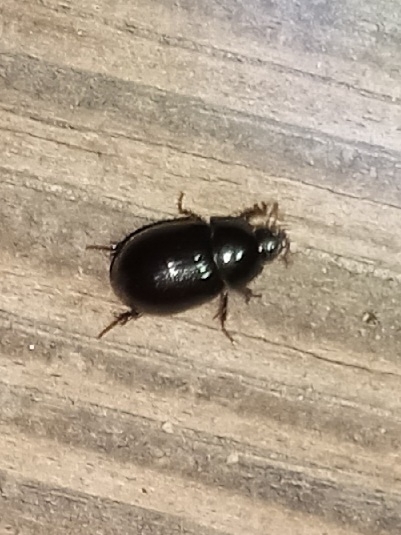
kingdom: Animalia
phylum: Arthropoda
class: Insecta
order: Coleoptera
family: Hybosoridae
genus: Hybosorus
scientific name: Hybosorus illigeri
